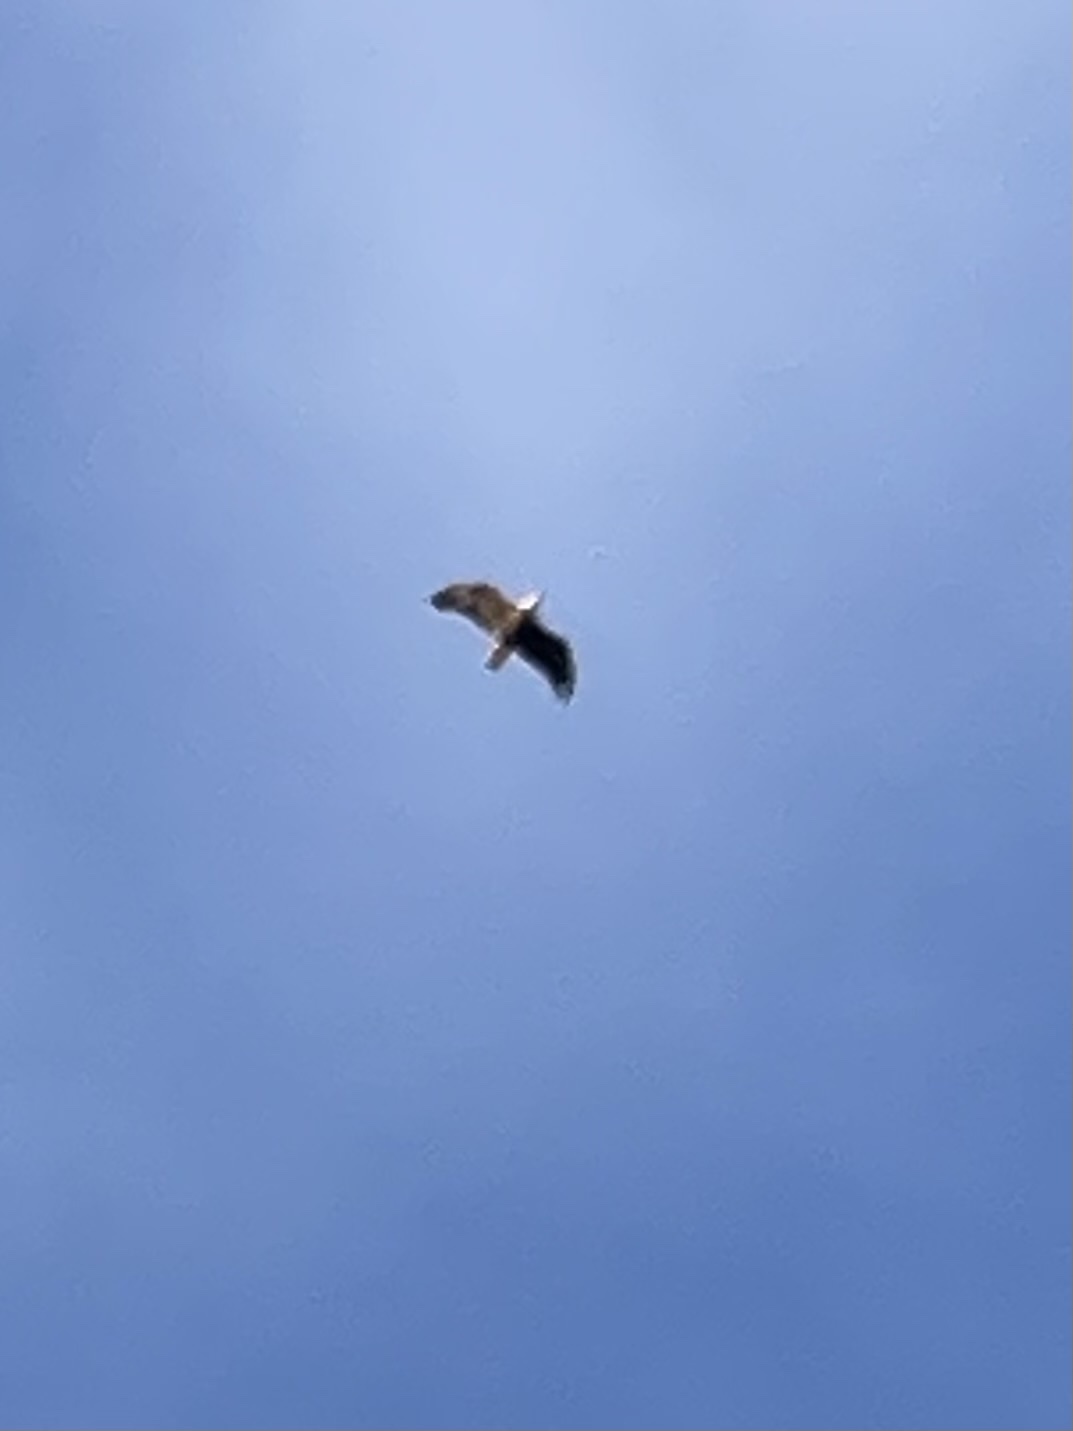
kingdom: Animalia
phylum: Chordata
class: Aves
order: Accipitriformes
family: Accipitridae
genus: Haliaeetus
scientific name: Haliaeetus leucocephalus
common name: Bald eagle
